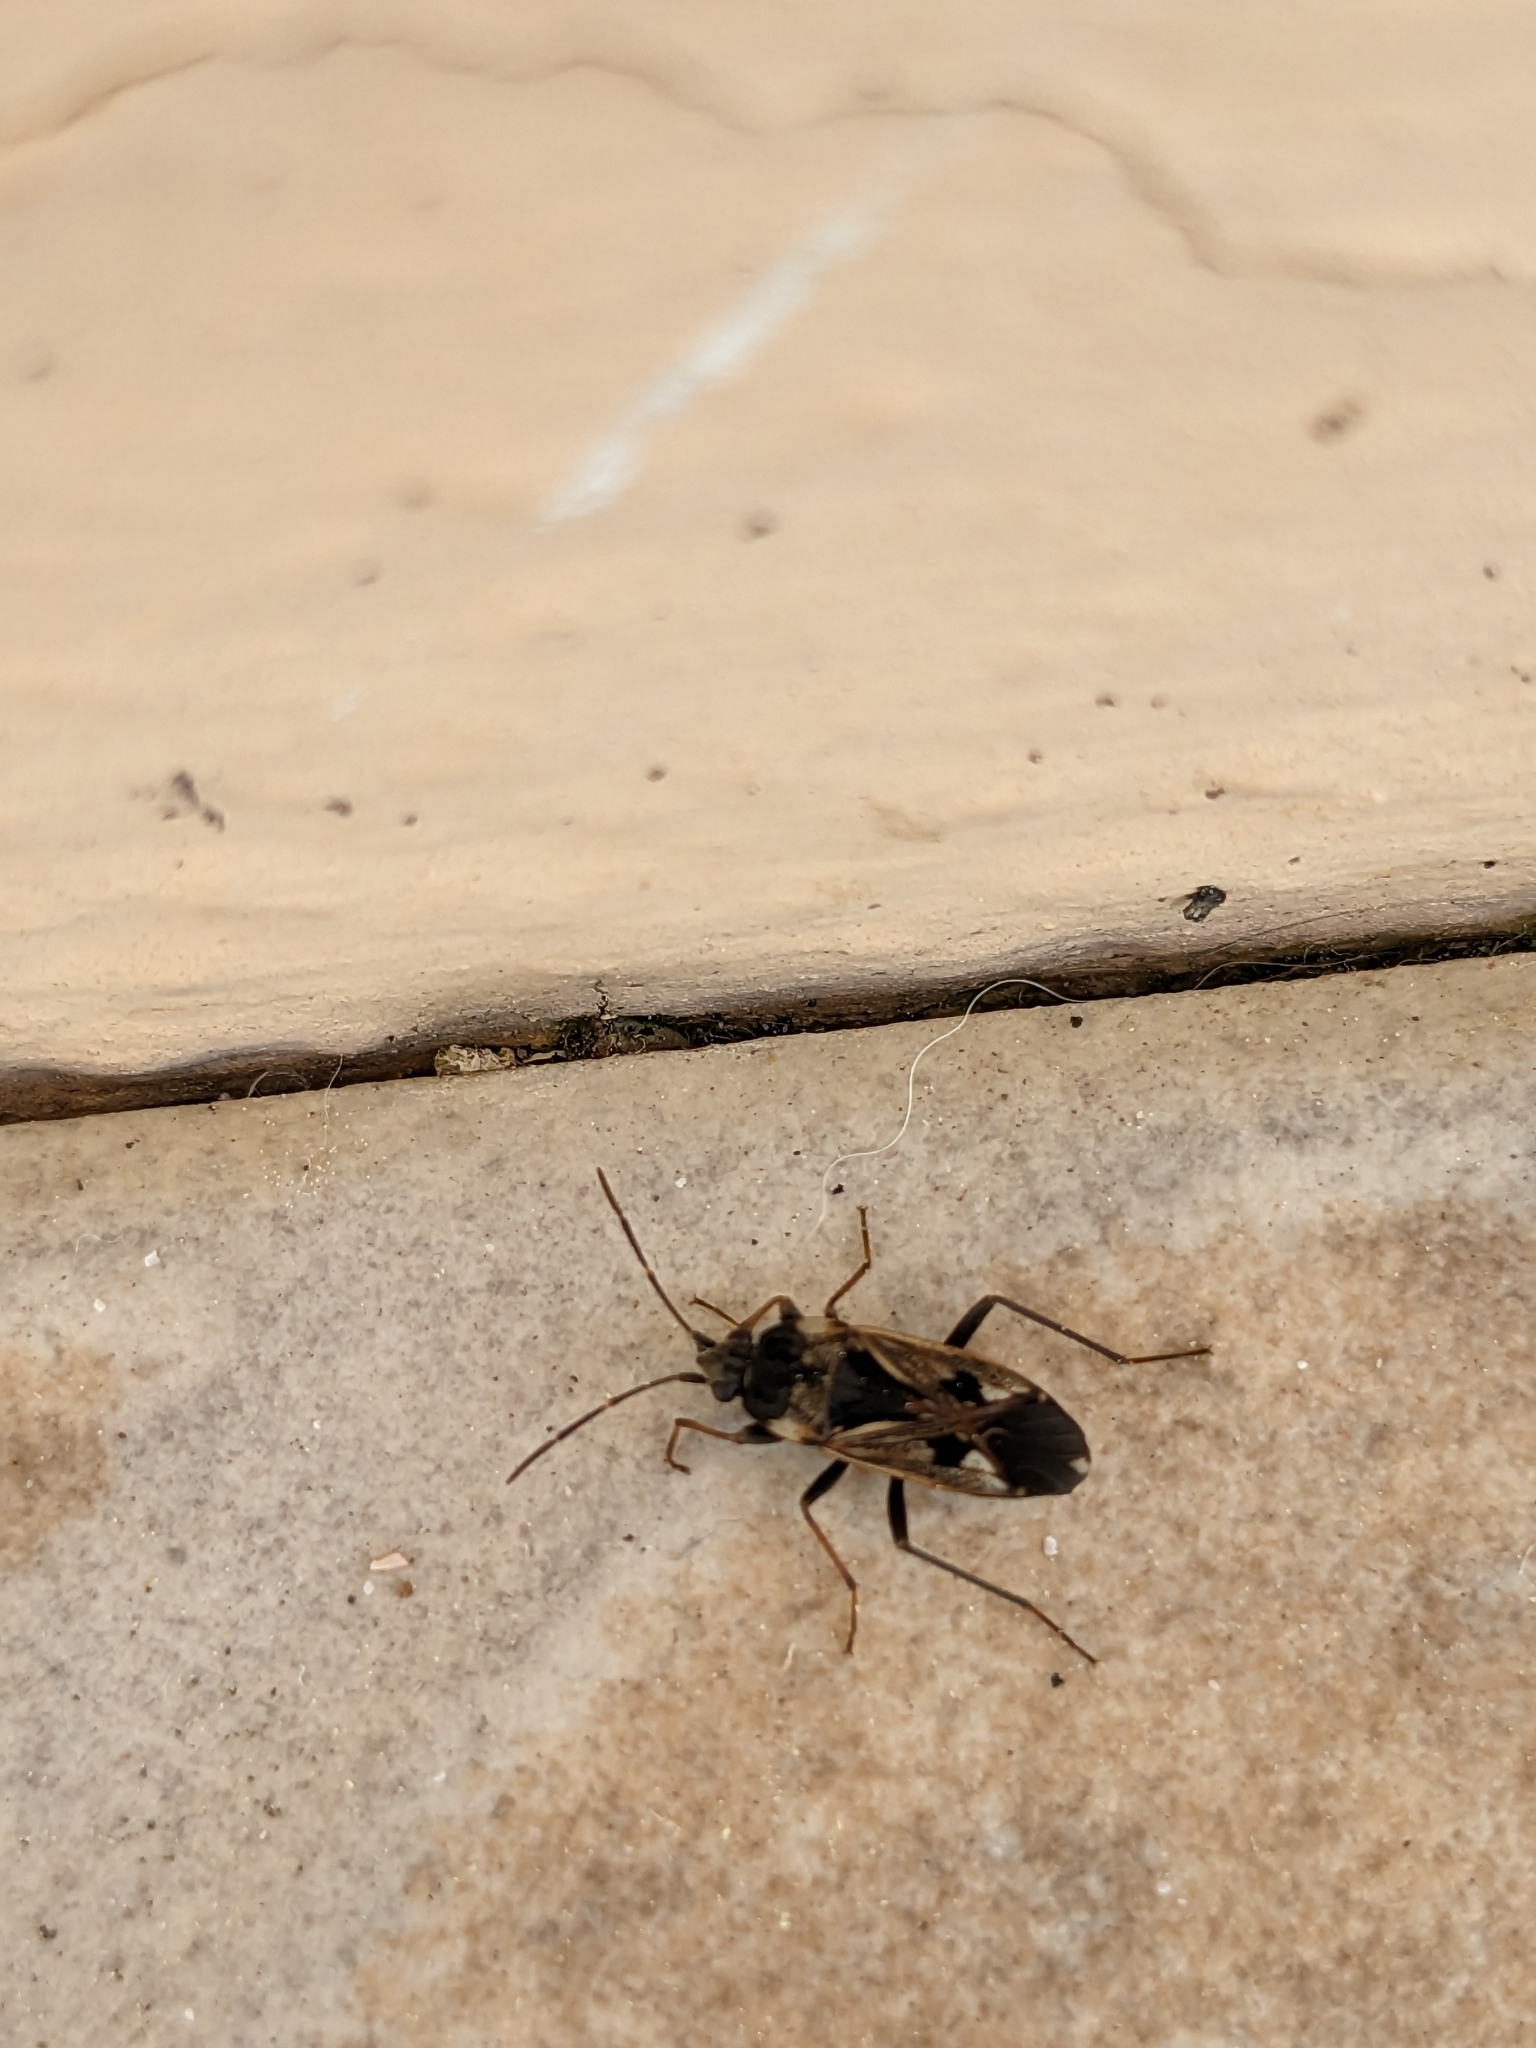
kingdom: Animalia
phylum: Arthropoda
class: Insecta
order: Hemiptera
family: Rhyparochromidae
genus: Rhyparochromus
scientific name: Rhyparochromus vulgaris
